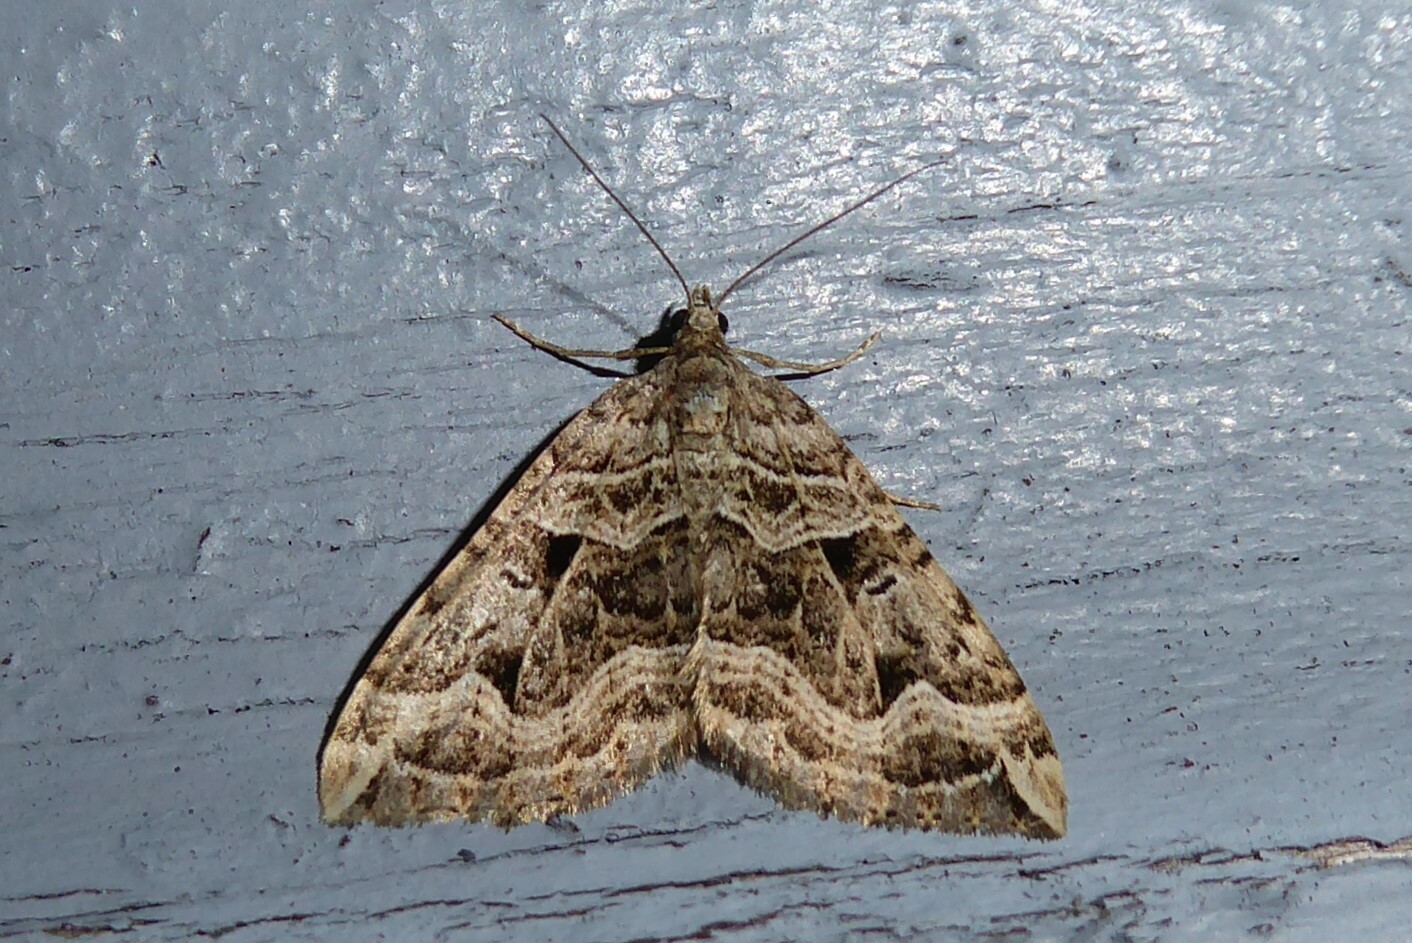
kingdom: Animalia
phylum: Arthropoda
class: Insecta
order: Lepidoptera
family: Geometridae
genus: Xanthorhoe
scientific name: Xanthorhoe semifissata
